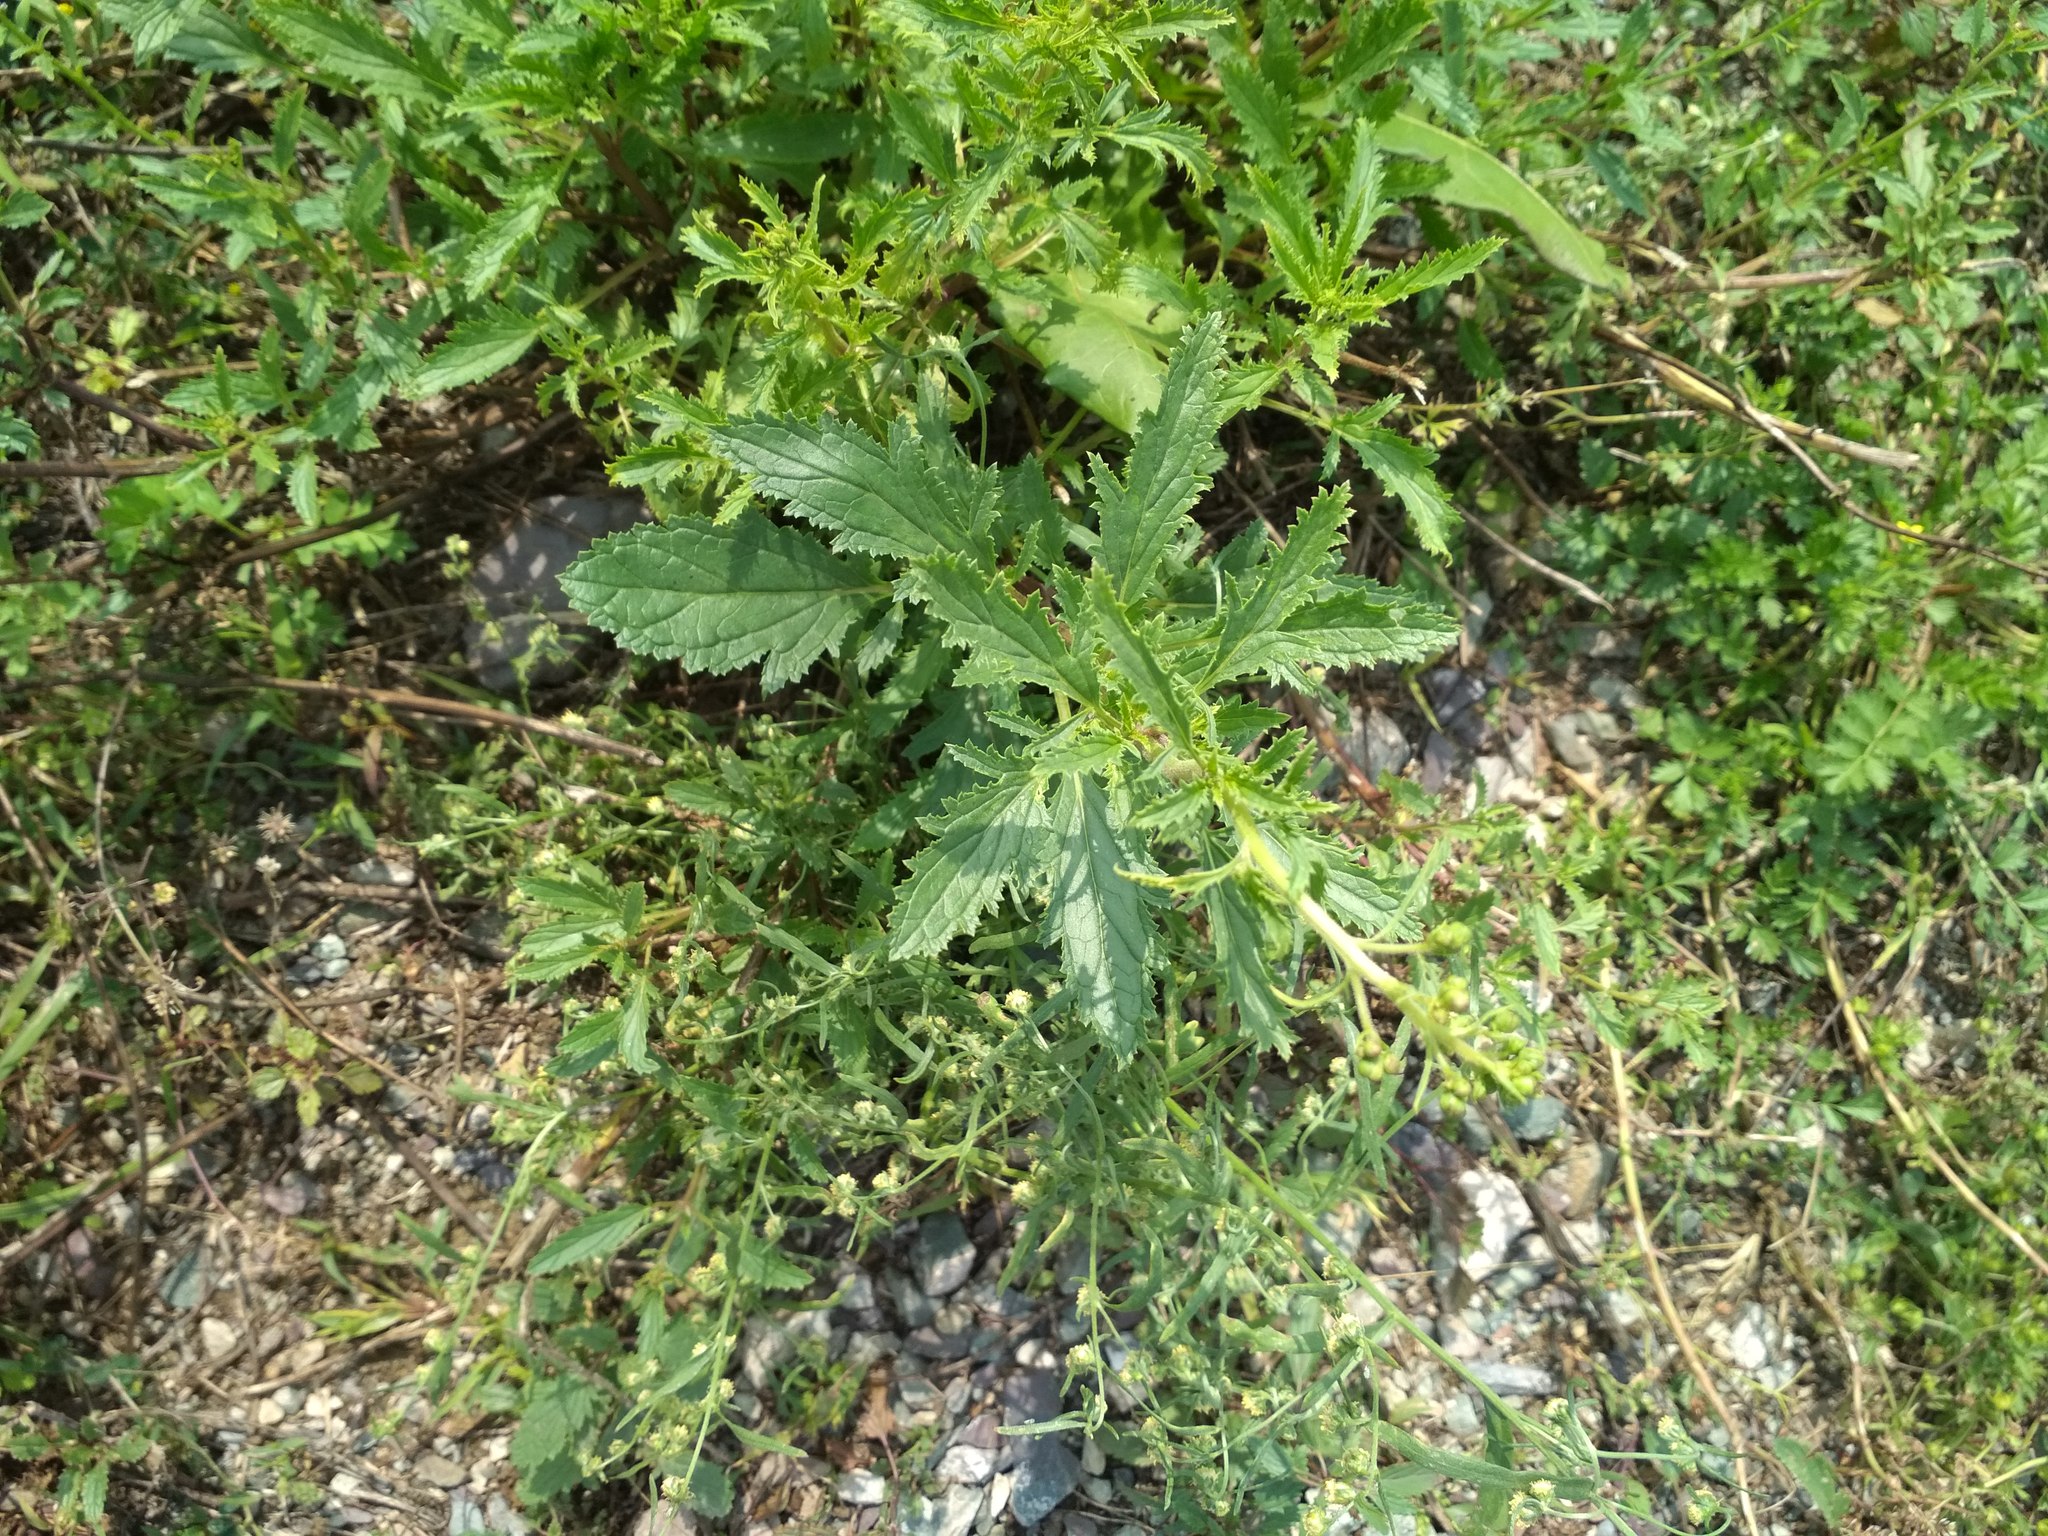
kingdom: Plantae
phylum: Tracheophyta
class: Magnoliopsida
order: Lamiales
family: Scrophulariaceae
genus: Scrophularia
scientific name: Scrophularia incisa
